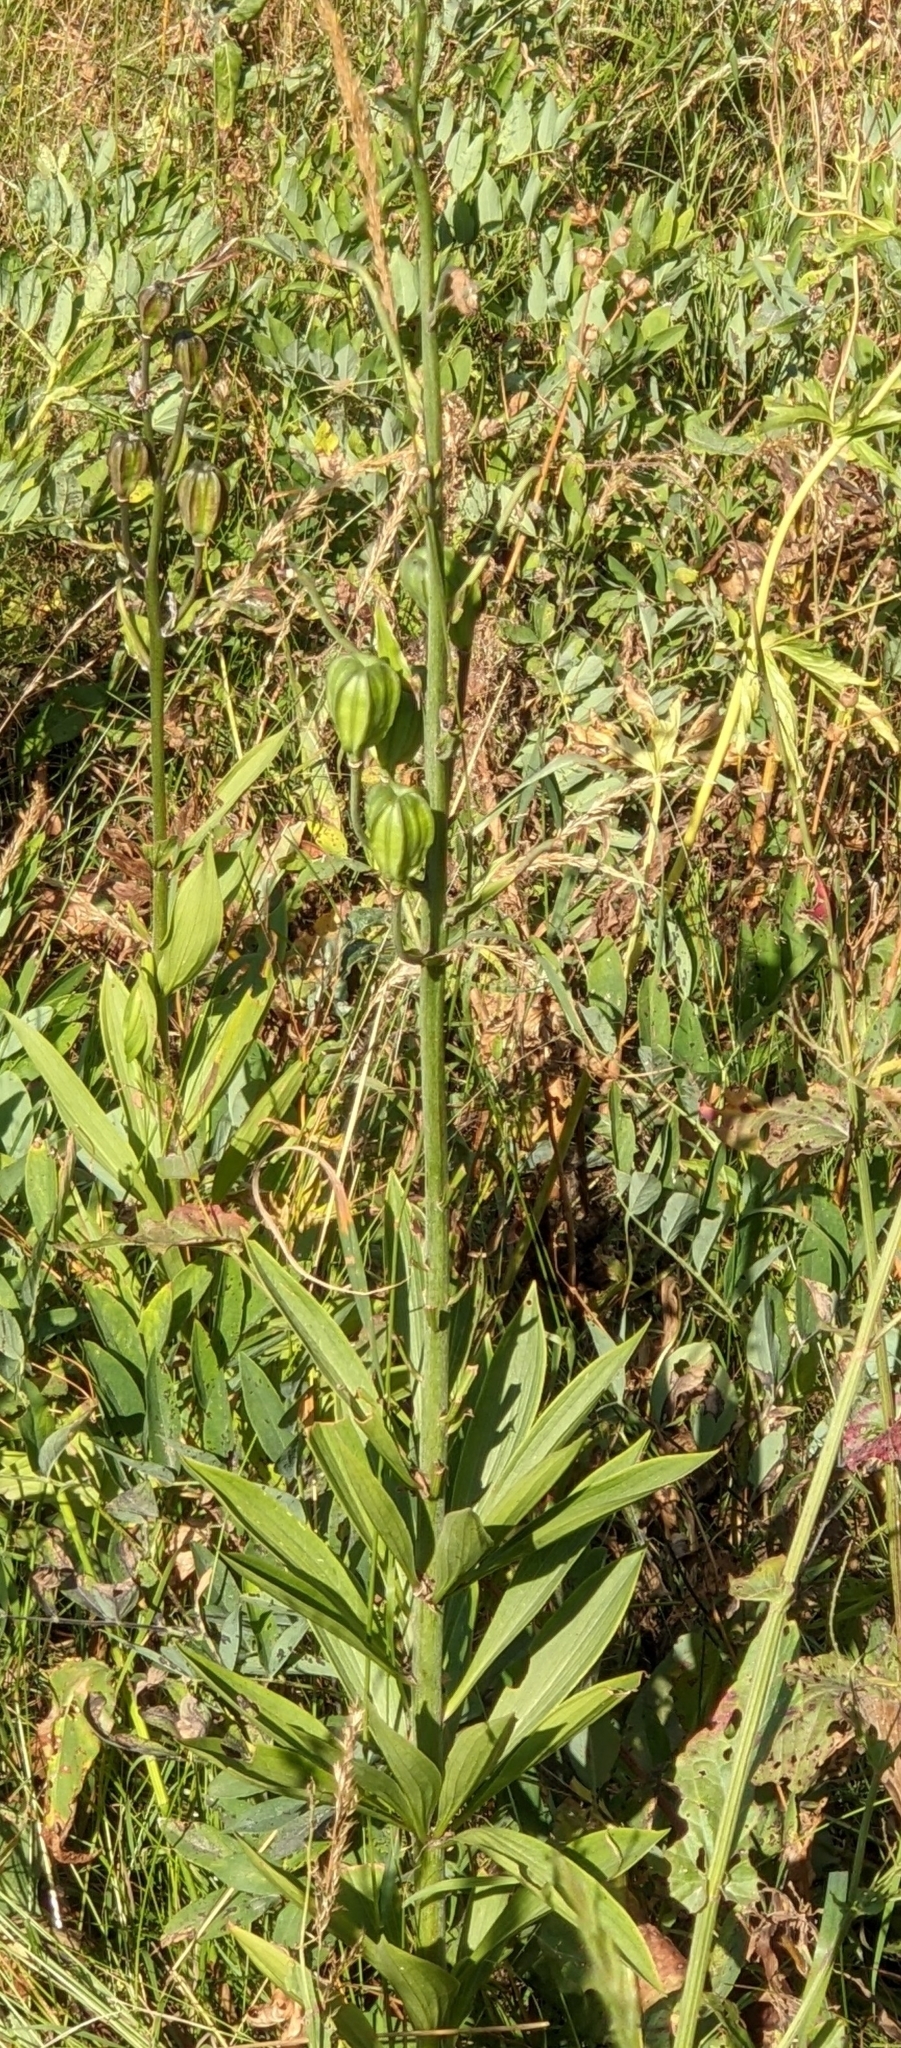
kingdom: Plantae
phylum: Tracheophyta
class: Liliopsida
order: Liliales
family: Liliaceae
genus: Lilium
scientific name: Lilium martagon
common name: Martagon lily
